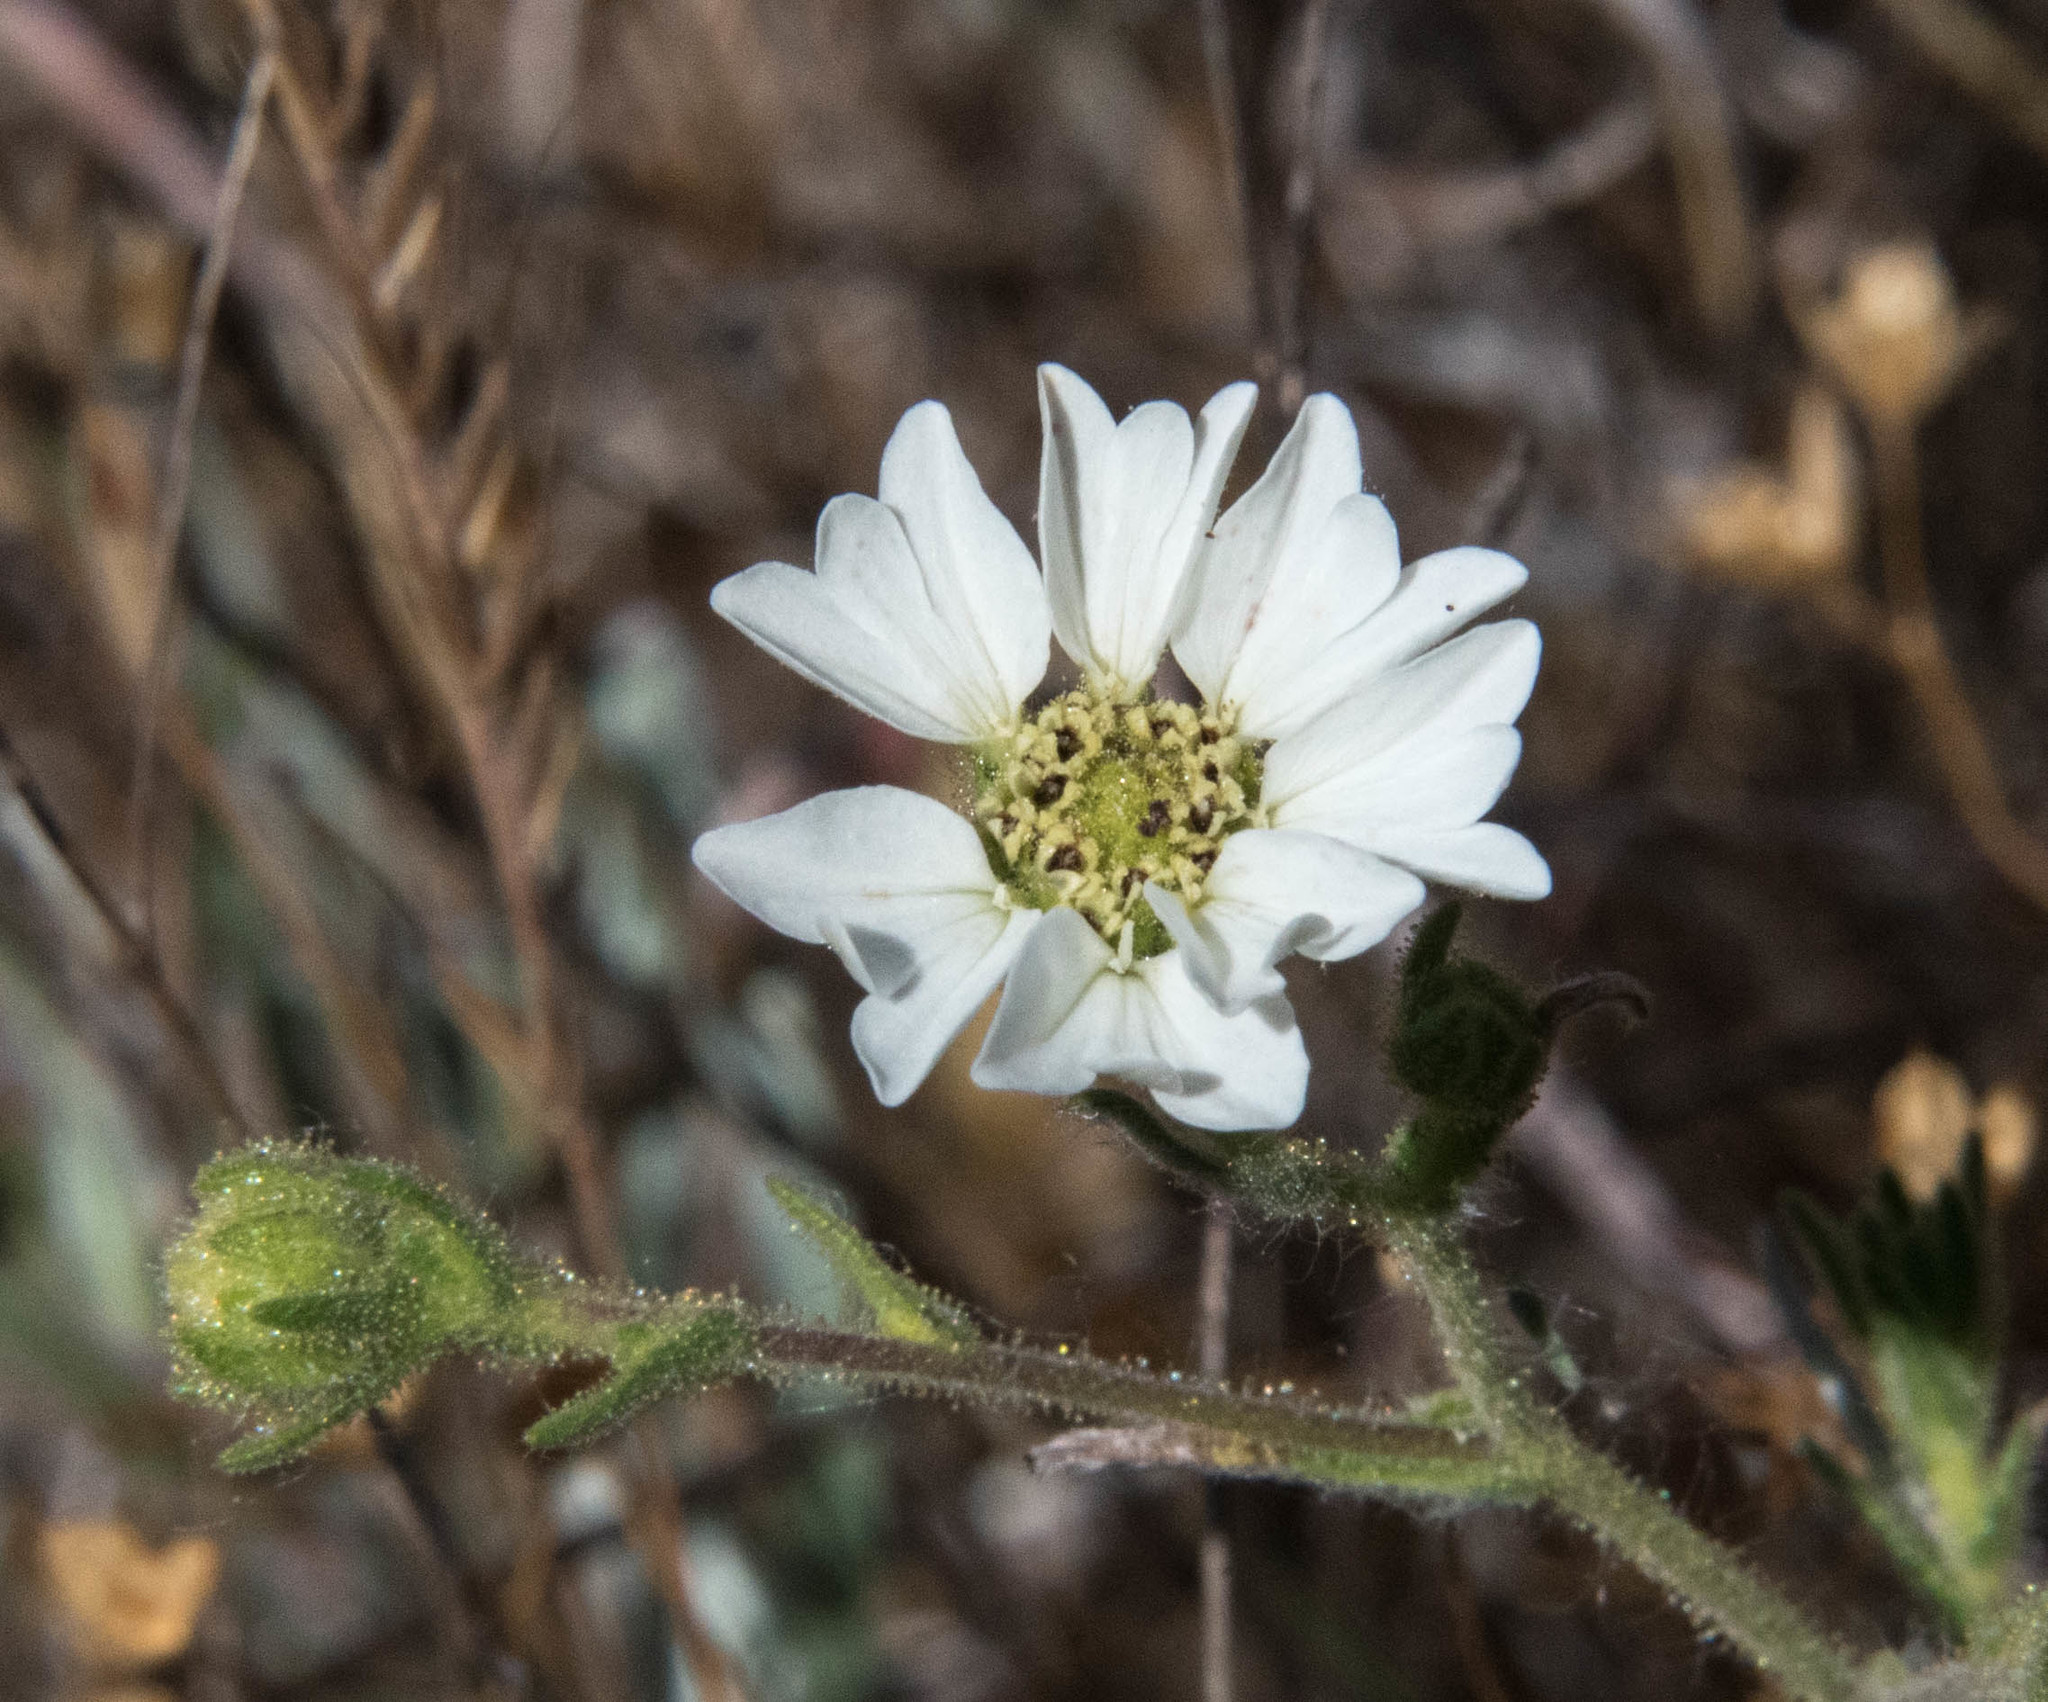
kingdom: Plantae
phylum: Tracheophyta
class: Magnoliopsida
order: Asterales
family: Asteraceae
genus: Hemizonia
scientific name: Hemizonia congesta
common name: Hayfield tarweed
